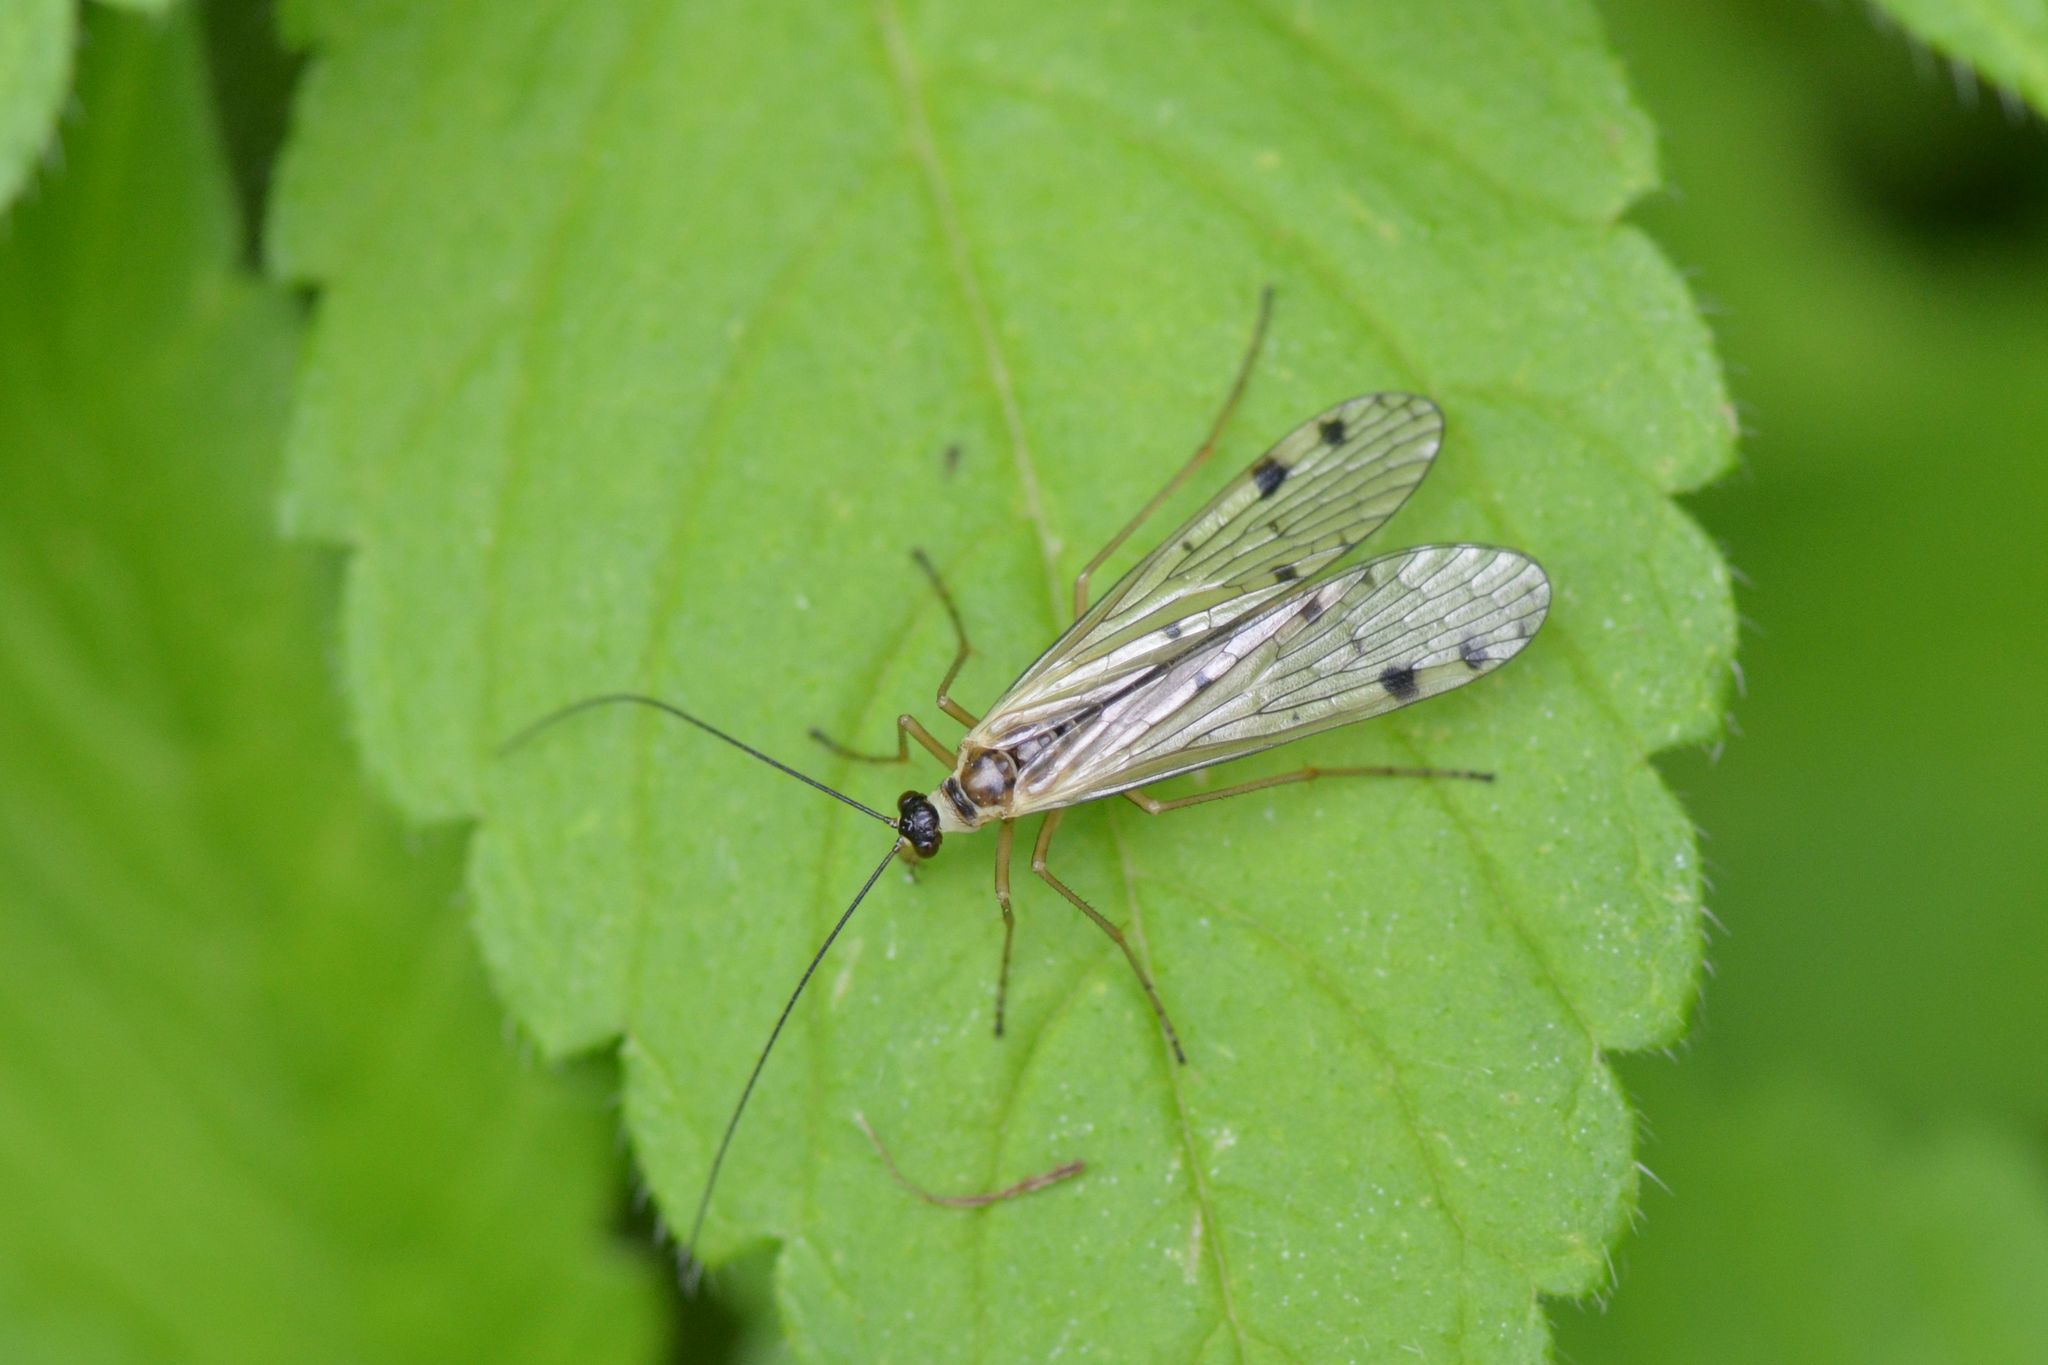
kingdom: Animalia
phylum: Arthropoda
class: Insecta
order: Mecoptera
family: Panorpidae
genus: Panorpa
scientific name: Panorpa alpina
